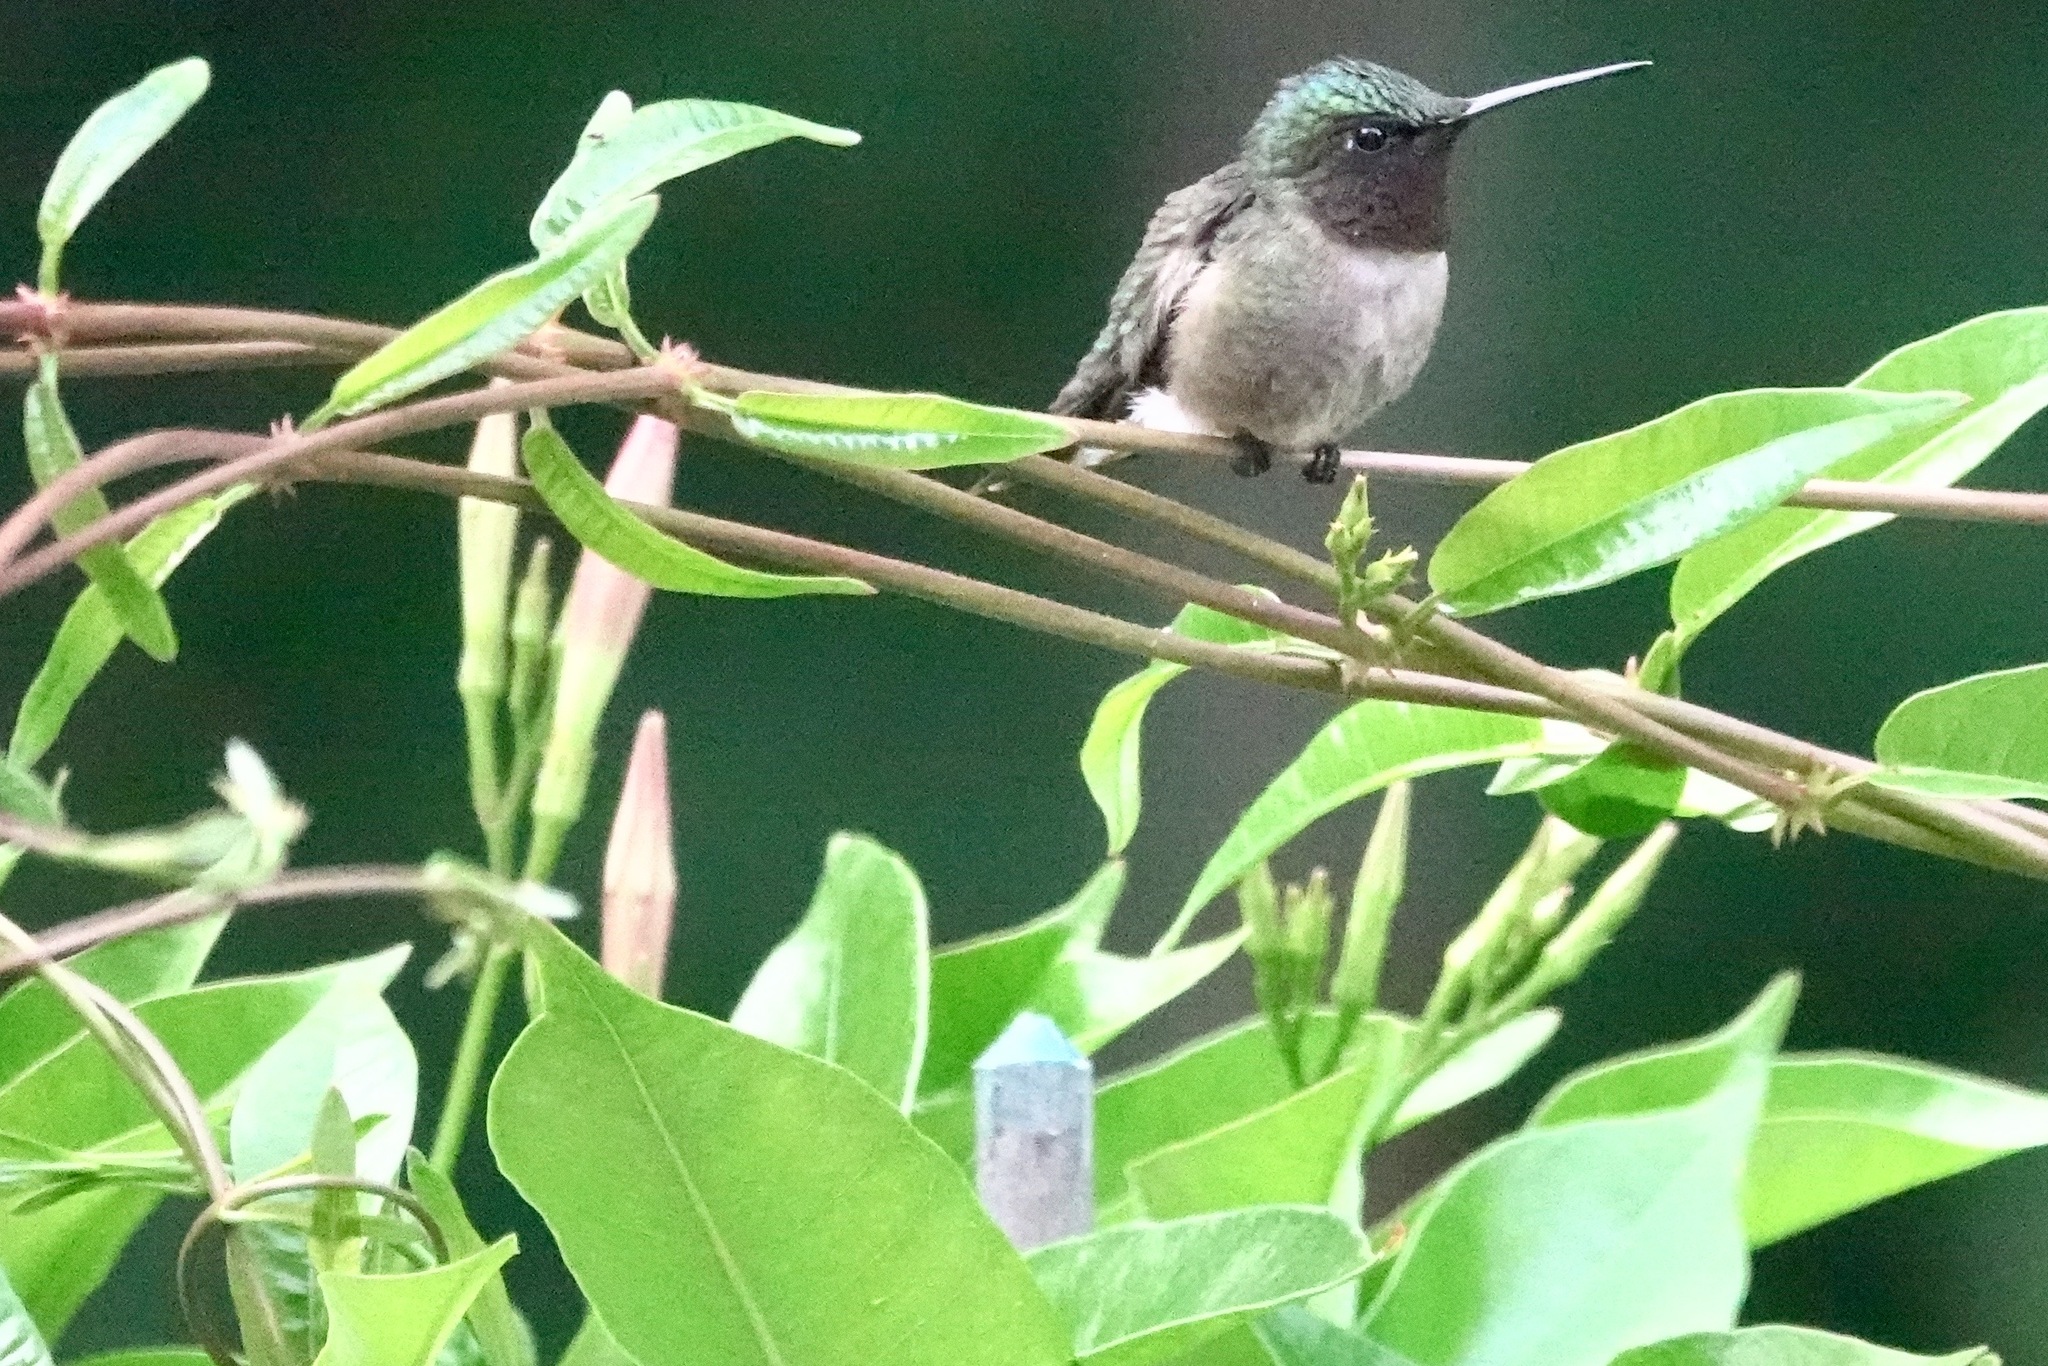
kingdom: Animalia
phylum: Arthropoda
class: Insecta
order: Lepidoptera
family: Nymphalidae
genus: Danaus
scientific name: Danaus plexippus
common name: Monarch
